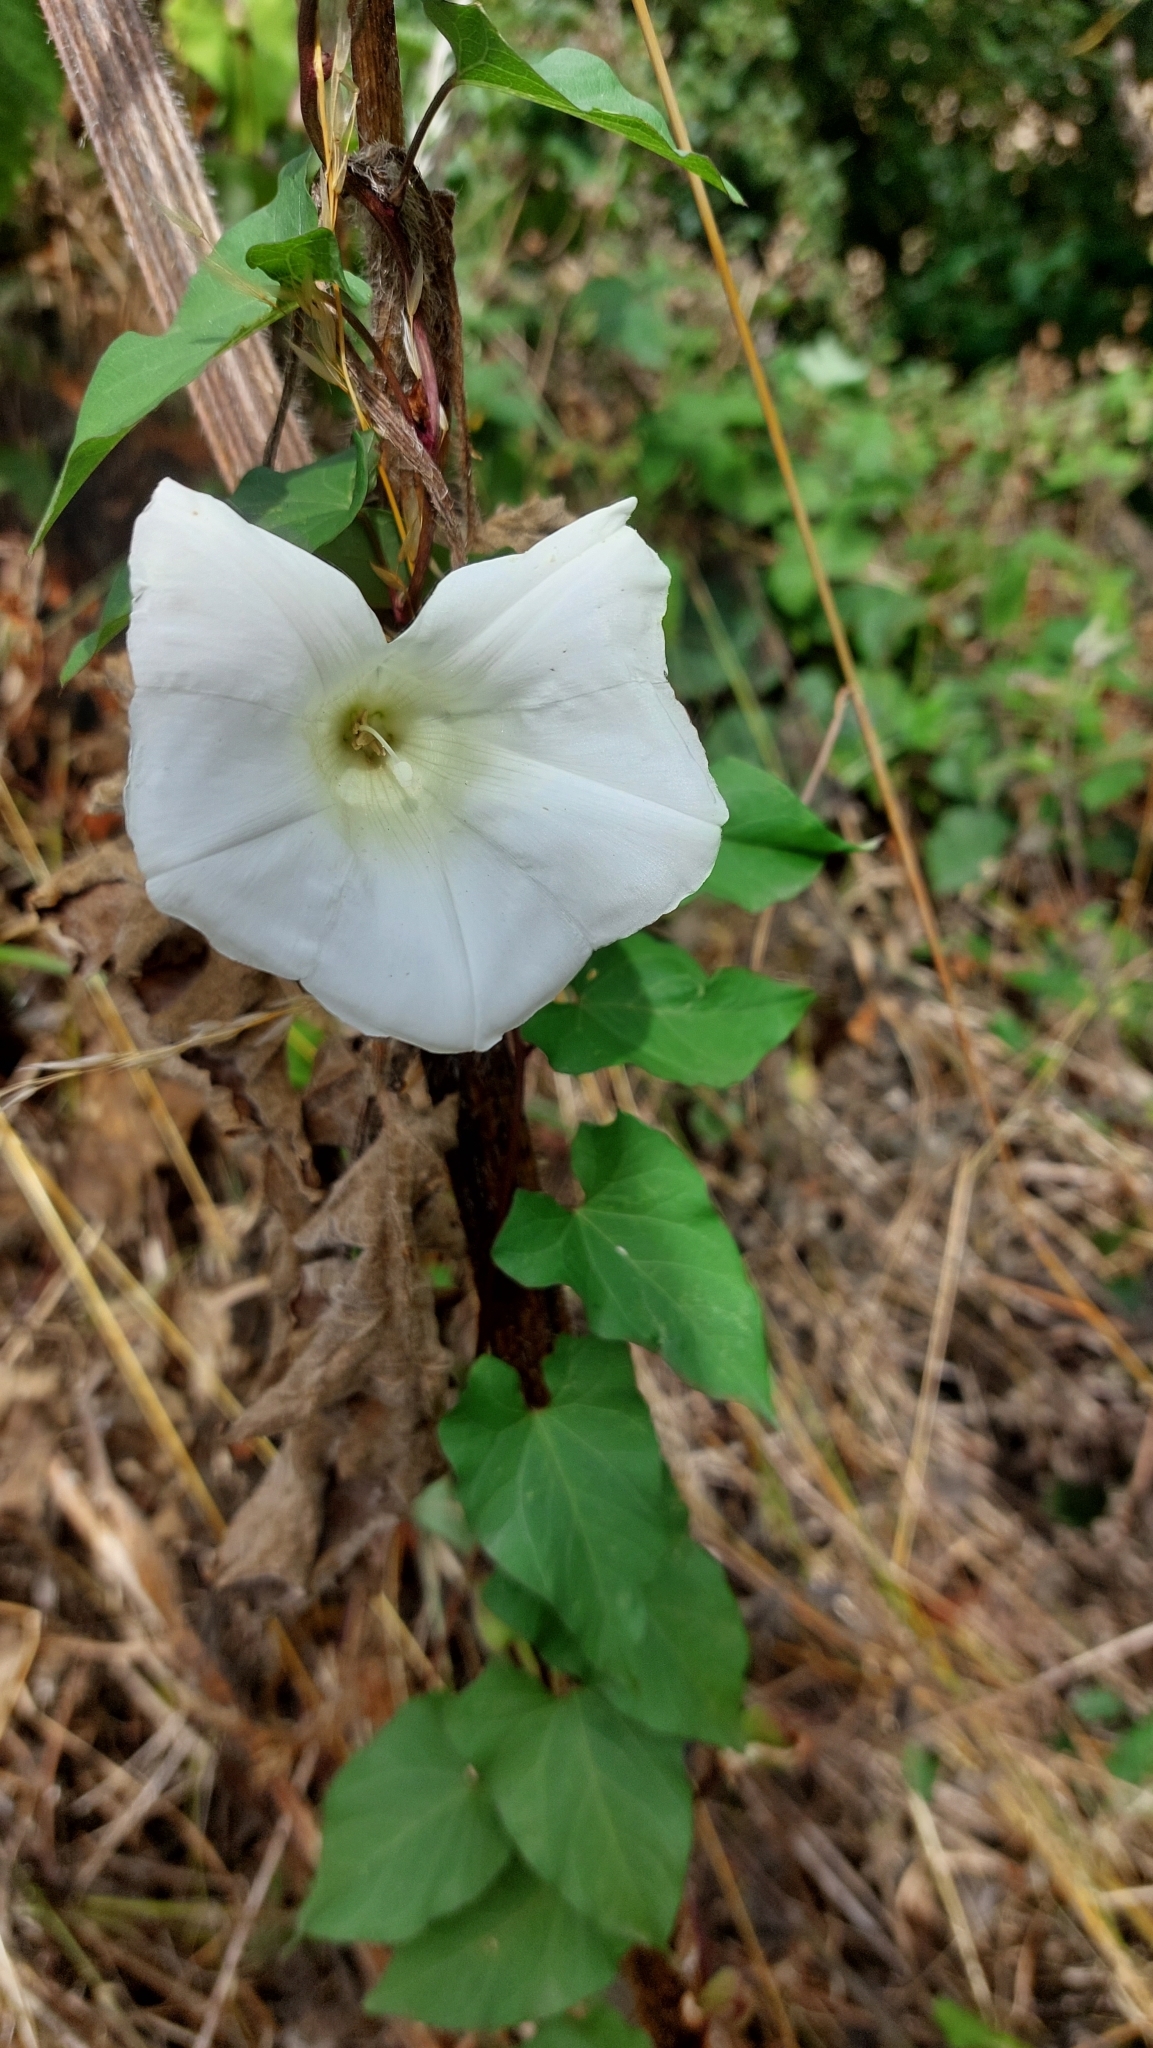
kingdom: Plantae
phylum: Tracheophyta
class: Magnoliopsida
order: Solanales
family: Convolvulaceae
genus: Calystegia
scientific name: Calystegia
